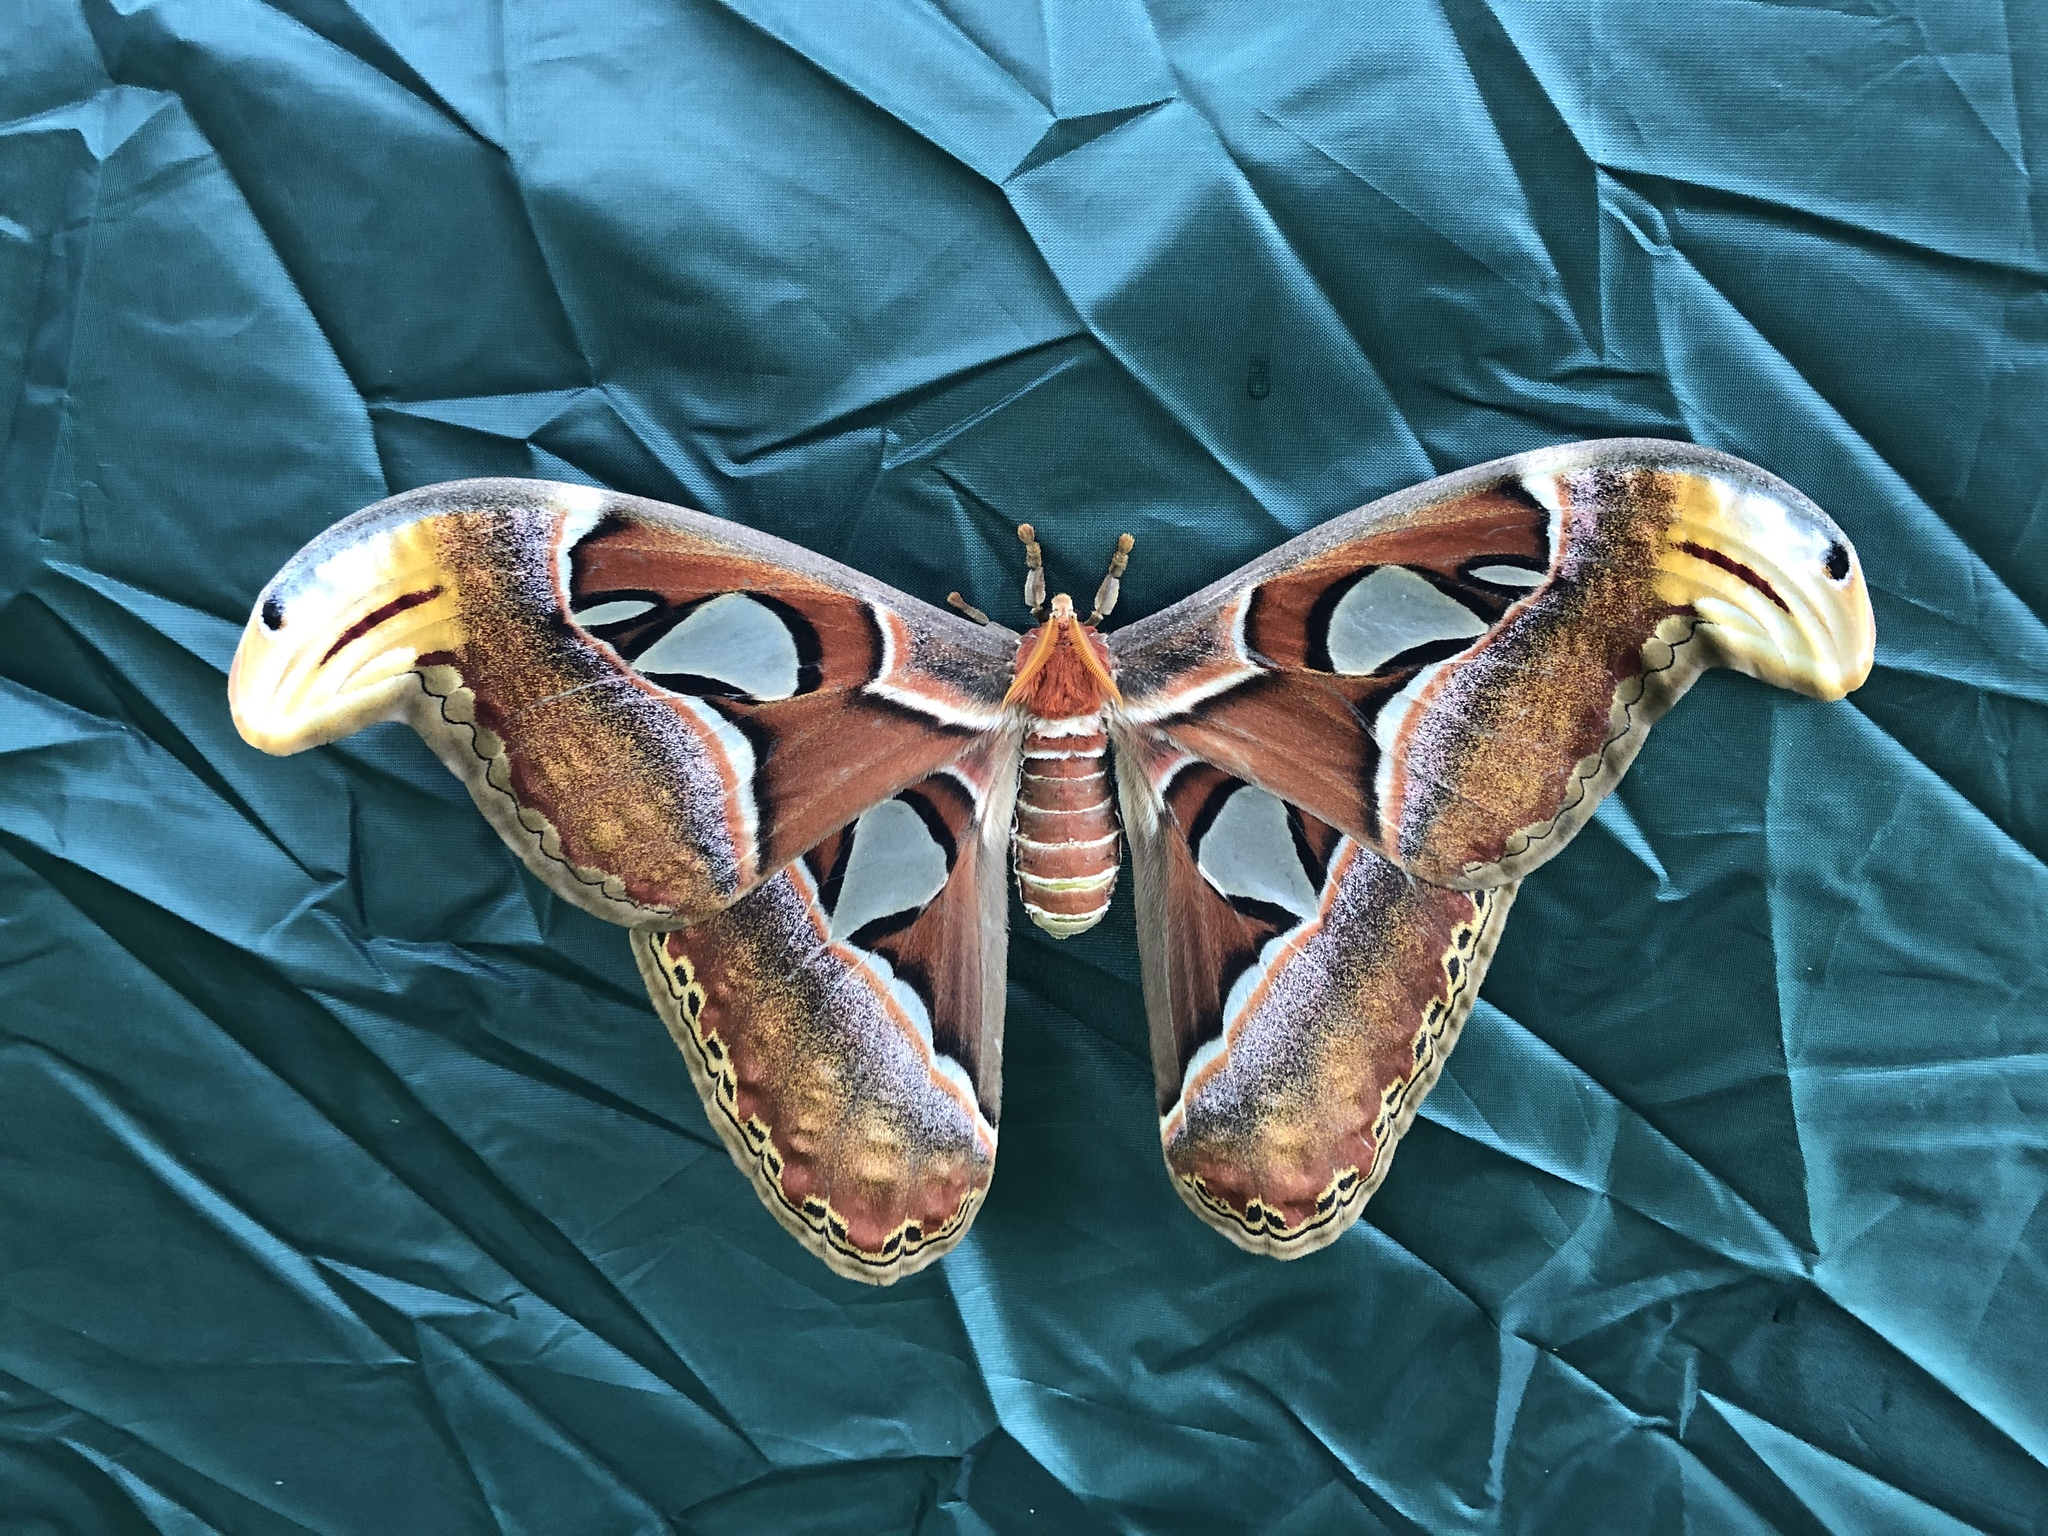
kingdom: Animalia
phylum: Arthropoda
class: Insecta
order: Lepidoptera
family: Saturniidae
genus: Attacus
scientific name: Attacus atlas
